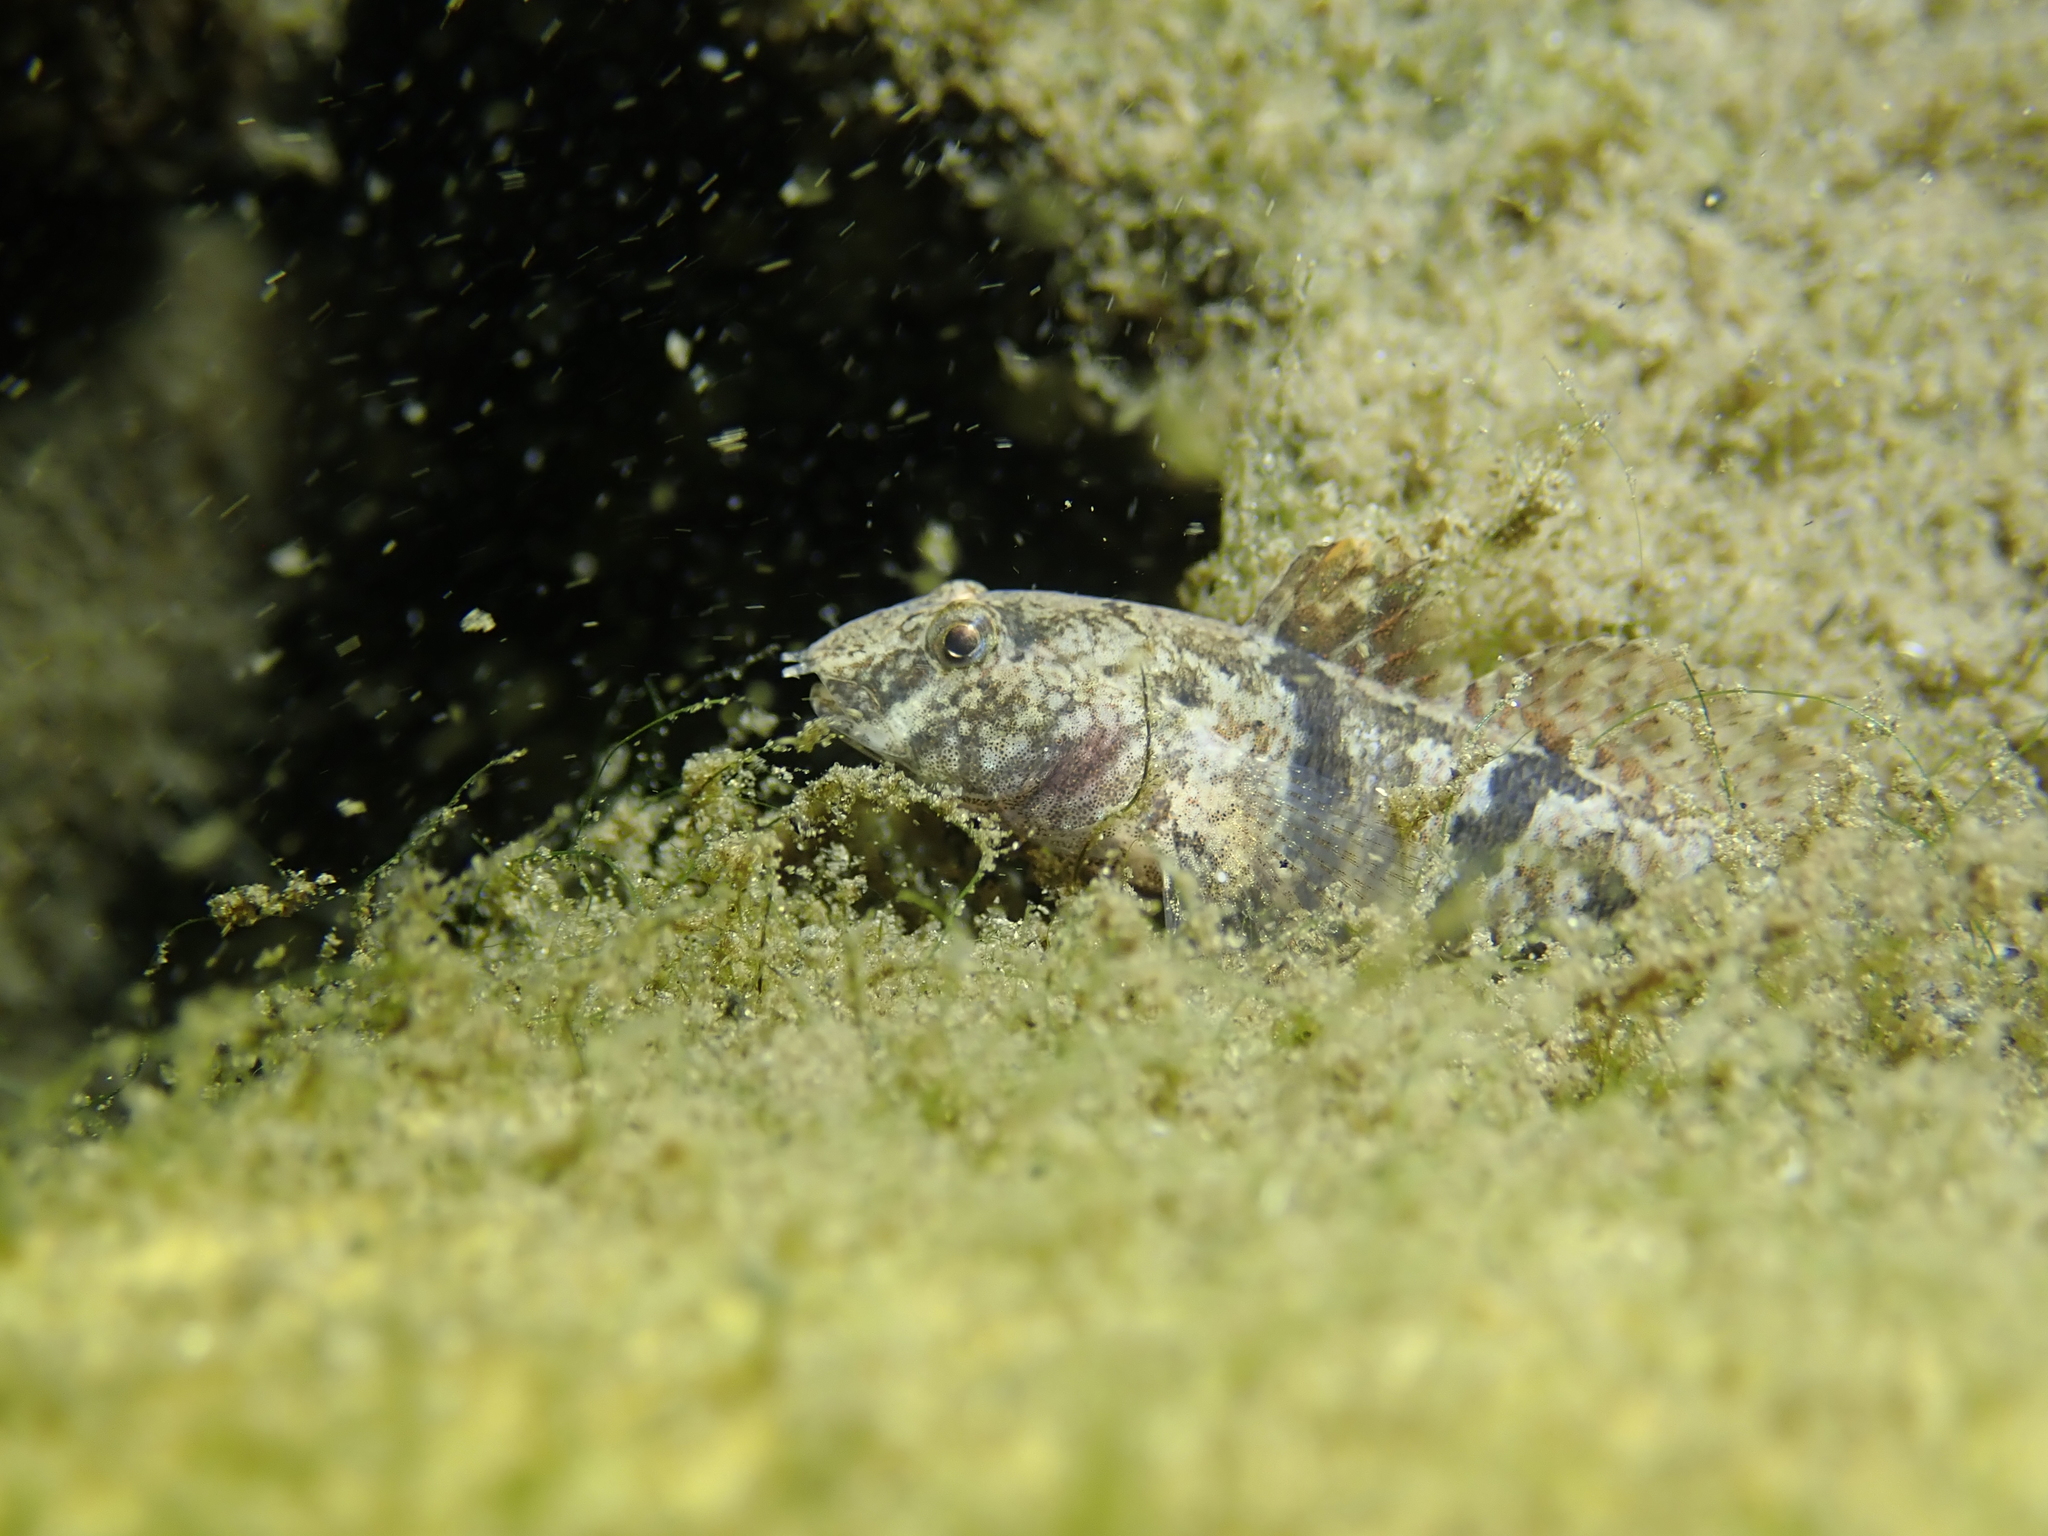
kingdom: Animalia
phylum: Chordata
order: Perciformes
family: Gobiidae
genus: Proterorhinus
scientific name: Proterorhinus semilunaris
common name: Western tubenose goby
